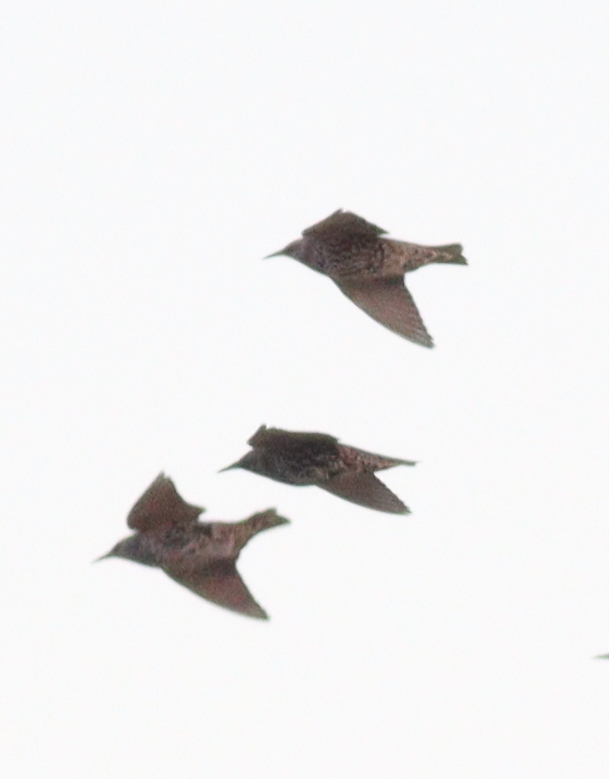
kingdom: Animalia
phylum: Chordata
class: Aves
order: Passeriformes
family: Sturnidae
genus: Sturnus
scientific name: Sturnus vulgaris
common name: Common starling
